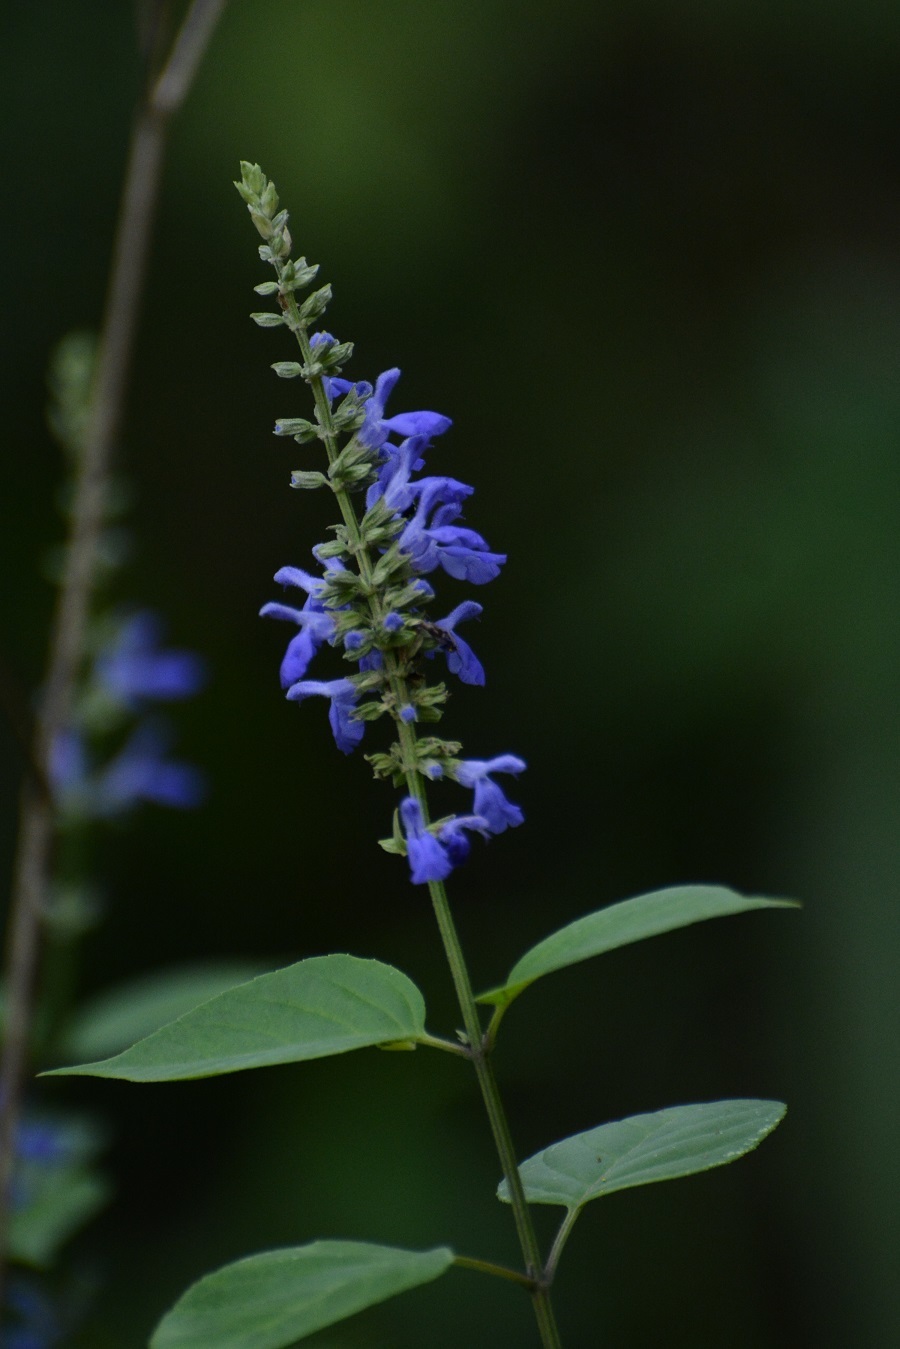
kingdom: Plantae
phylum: Tracheophyta
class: Magnoliopsida
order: Lamiales
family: Lamiaceae
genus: Salvia
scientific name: Salvia connivens
